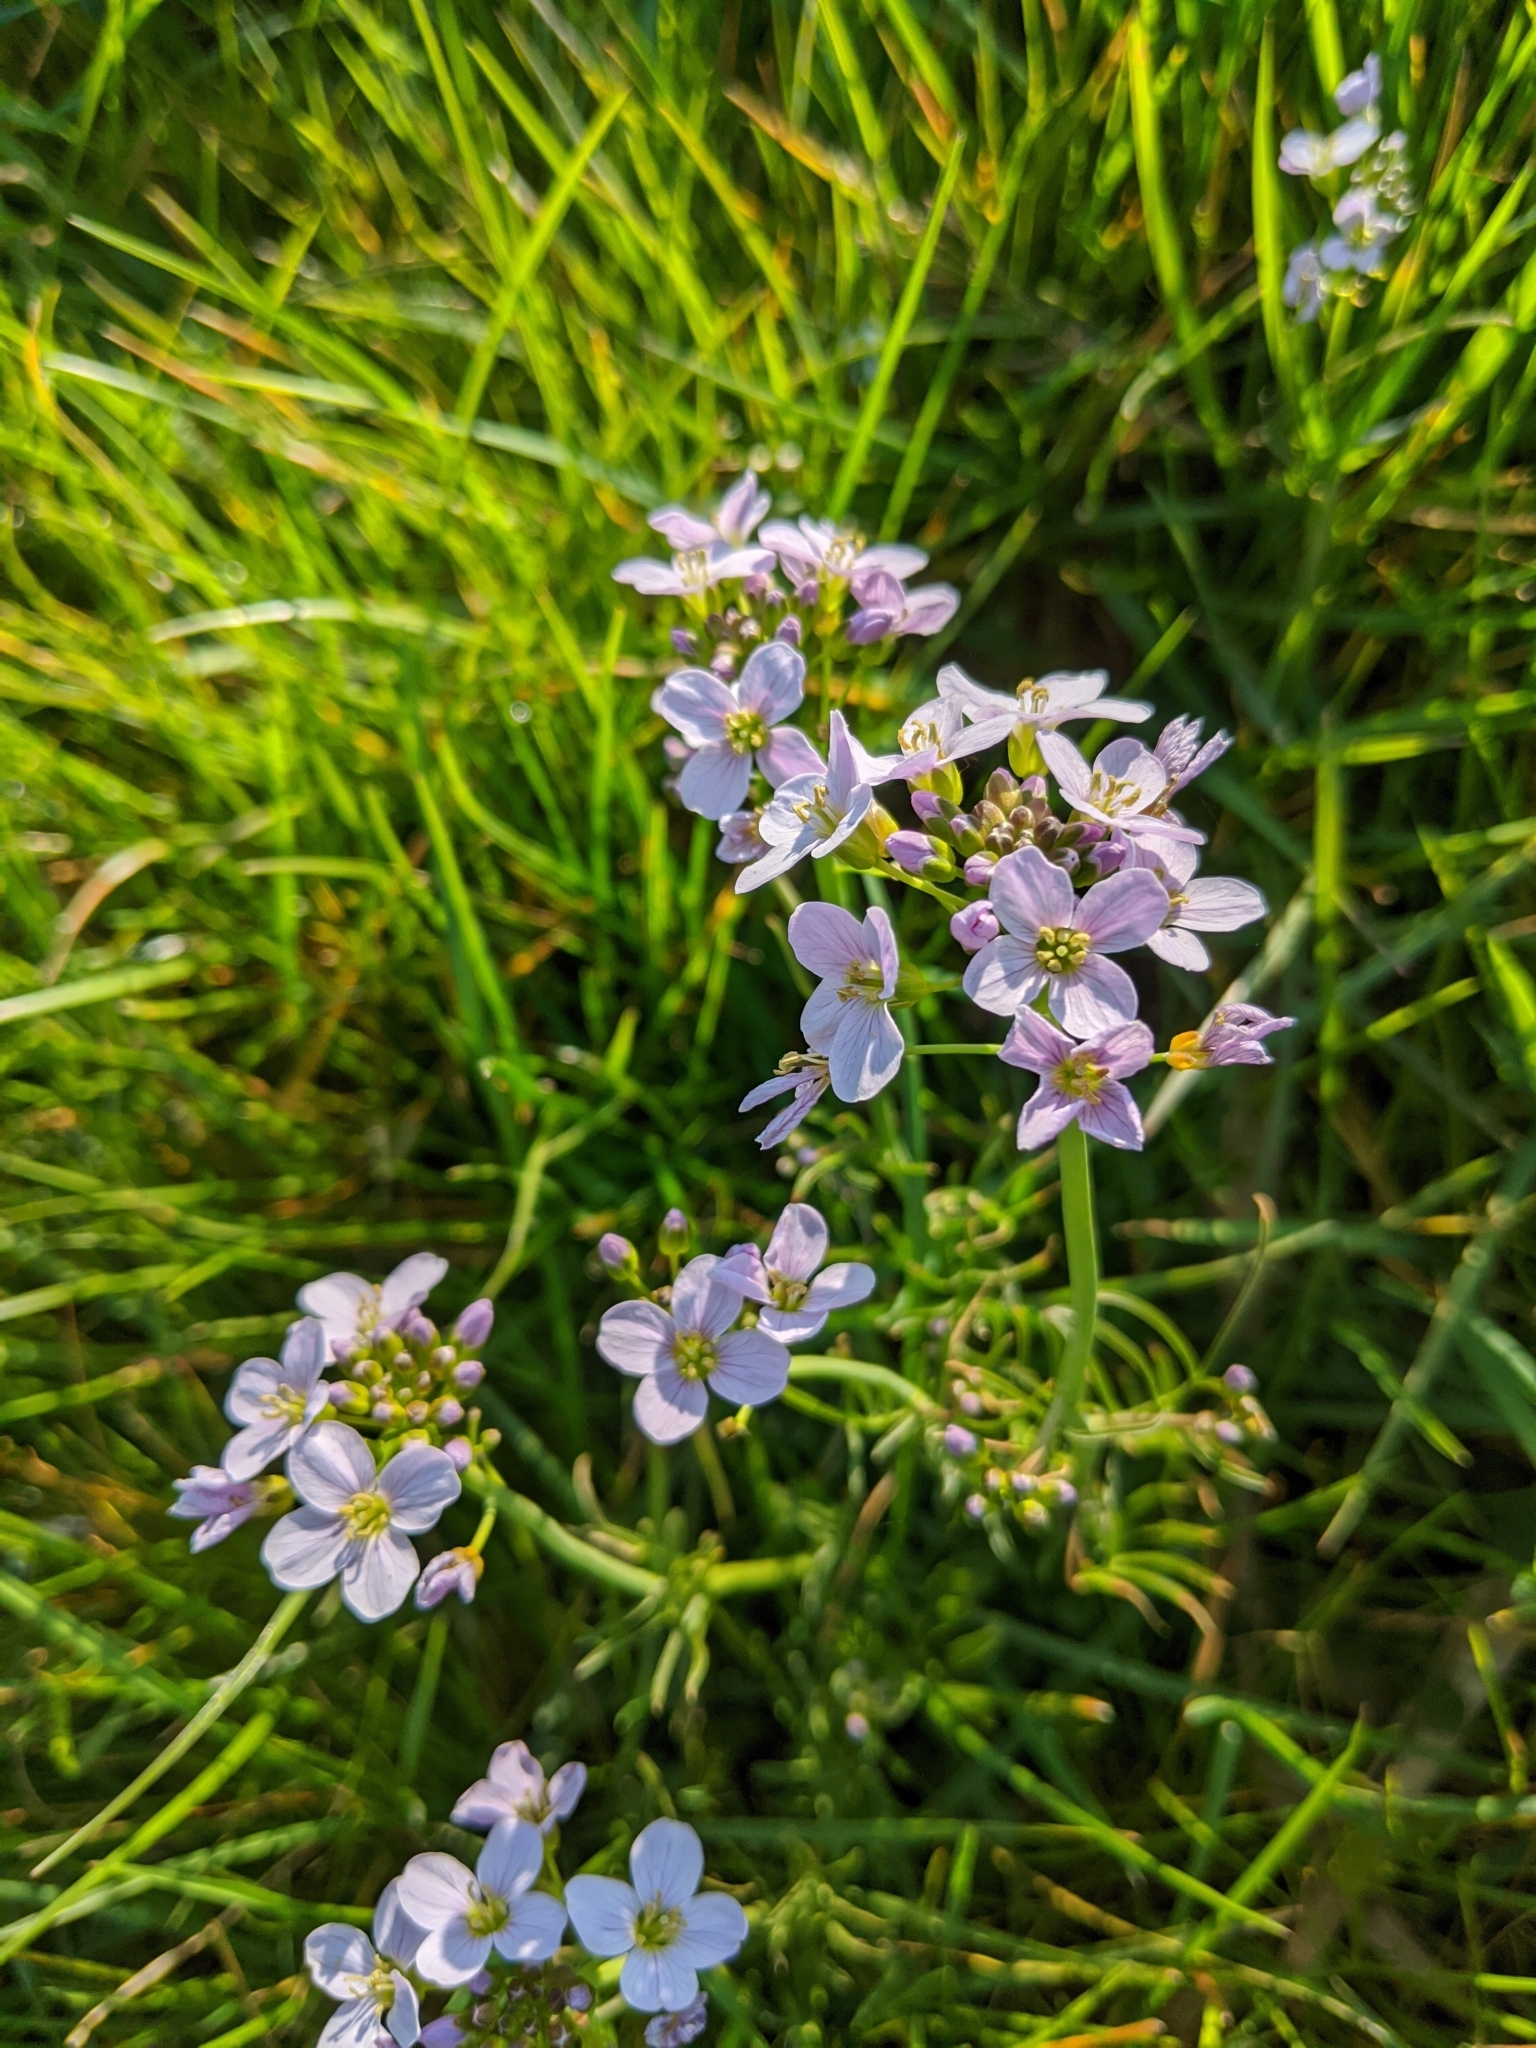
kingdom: Plantae
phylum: Tracheophyta
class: Magnoliopsida
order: Brassicales
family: Brassicaceae
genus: Cardamine
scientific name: Cardamine pratensis
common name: Cuckoo flower
